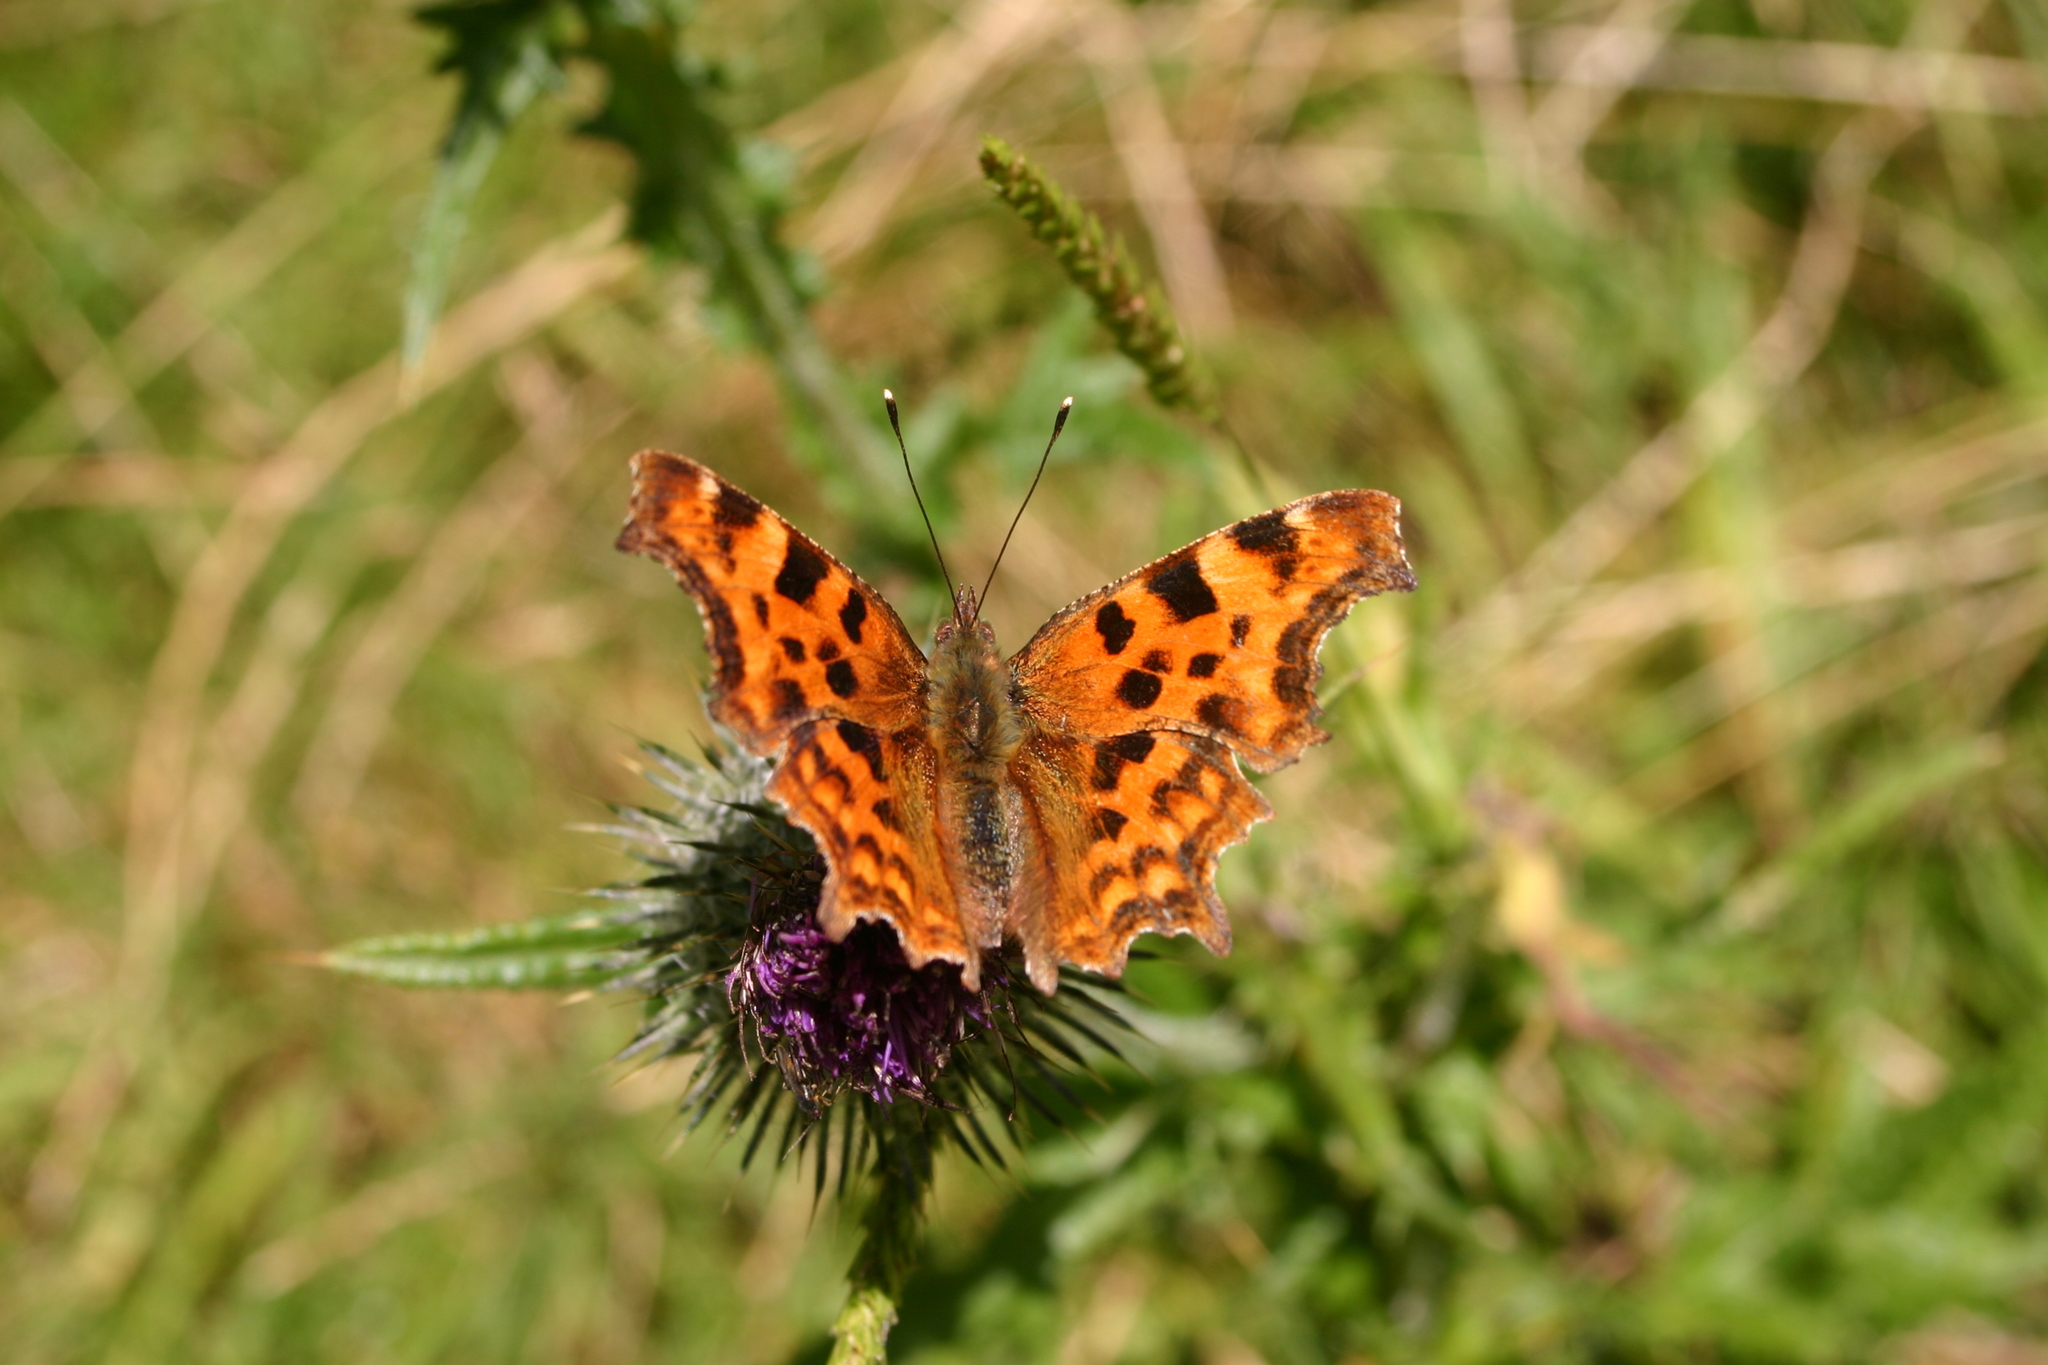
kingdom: Animalia
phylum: Arthropoda
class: Insecta
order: Lepidoptera
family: Nymphalidae
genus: Polygonia
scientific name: Polygonia c-album
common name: Comma
